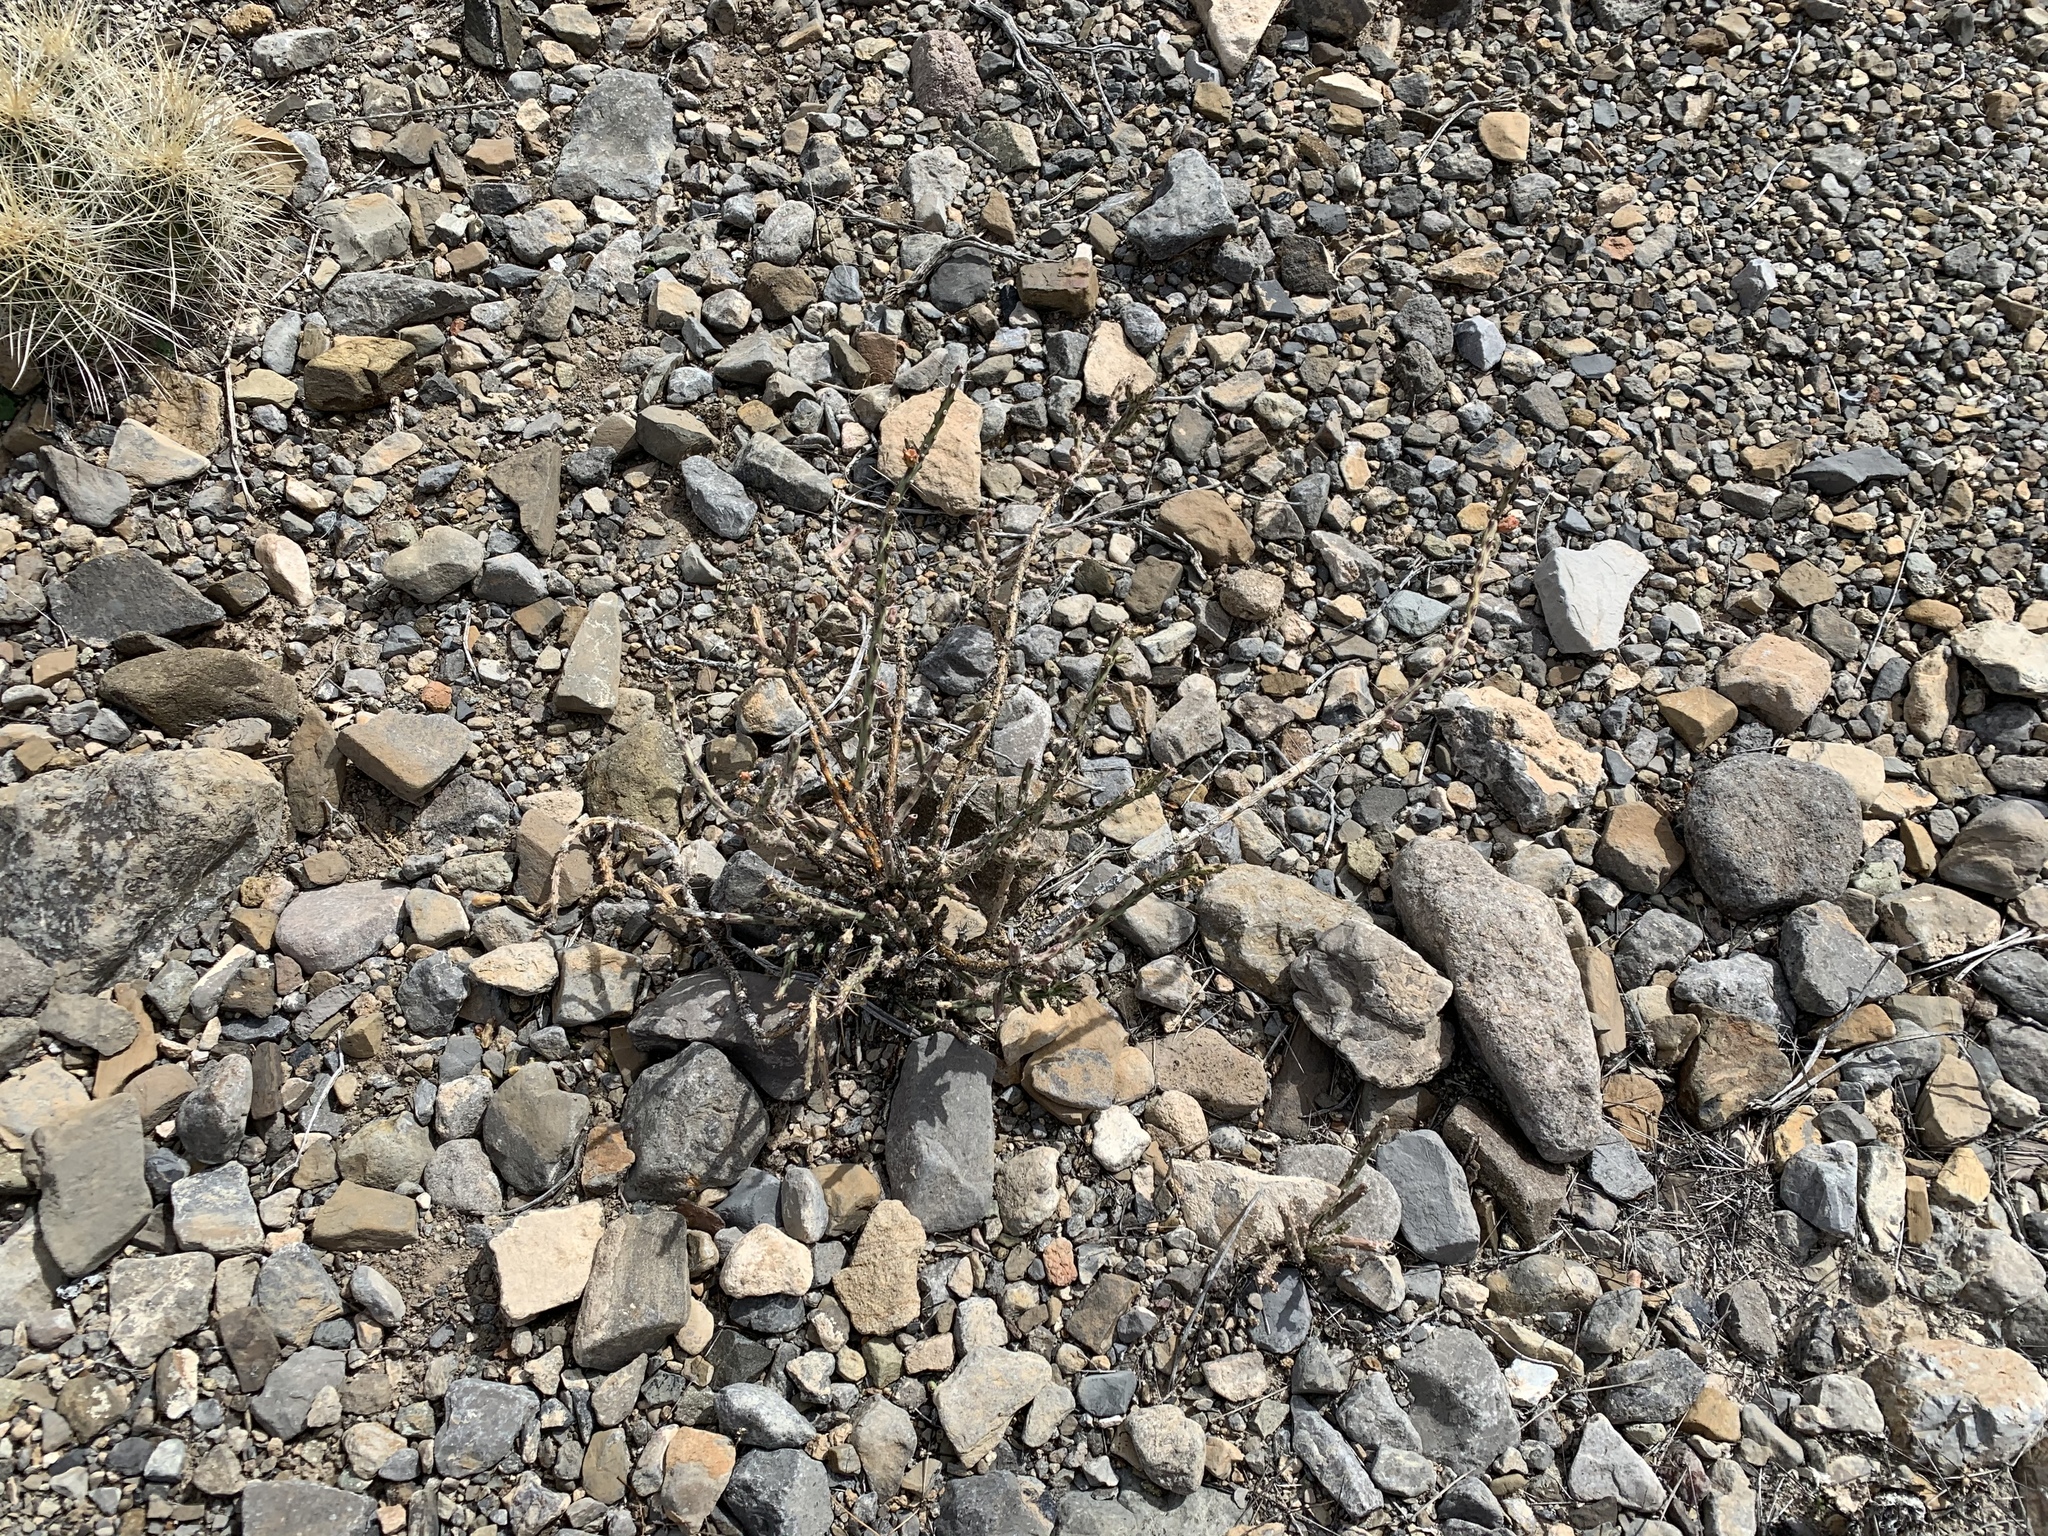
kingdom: Plantae
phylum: Tracheophyta
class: Magnoliopsida
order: Caryophyllales
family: Cactaceae
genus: Cylindropuntia
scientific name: Cylindropuntia leptocaulis
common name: Christmas cactus
